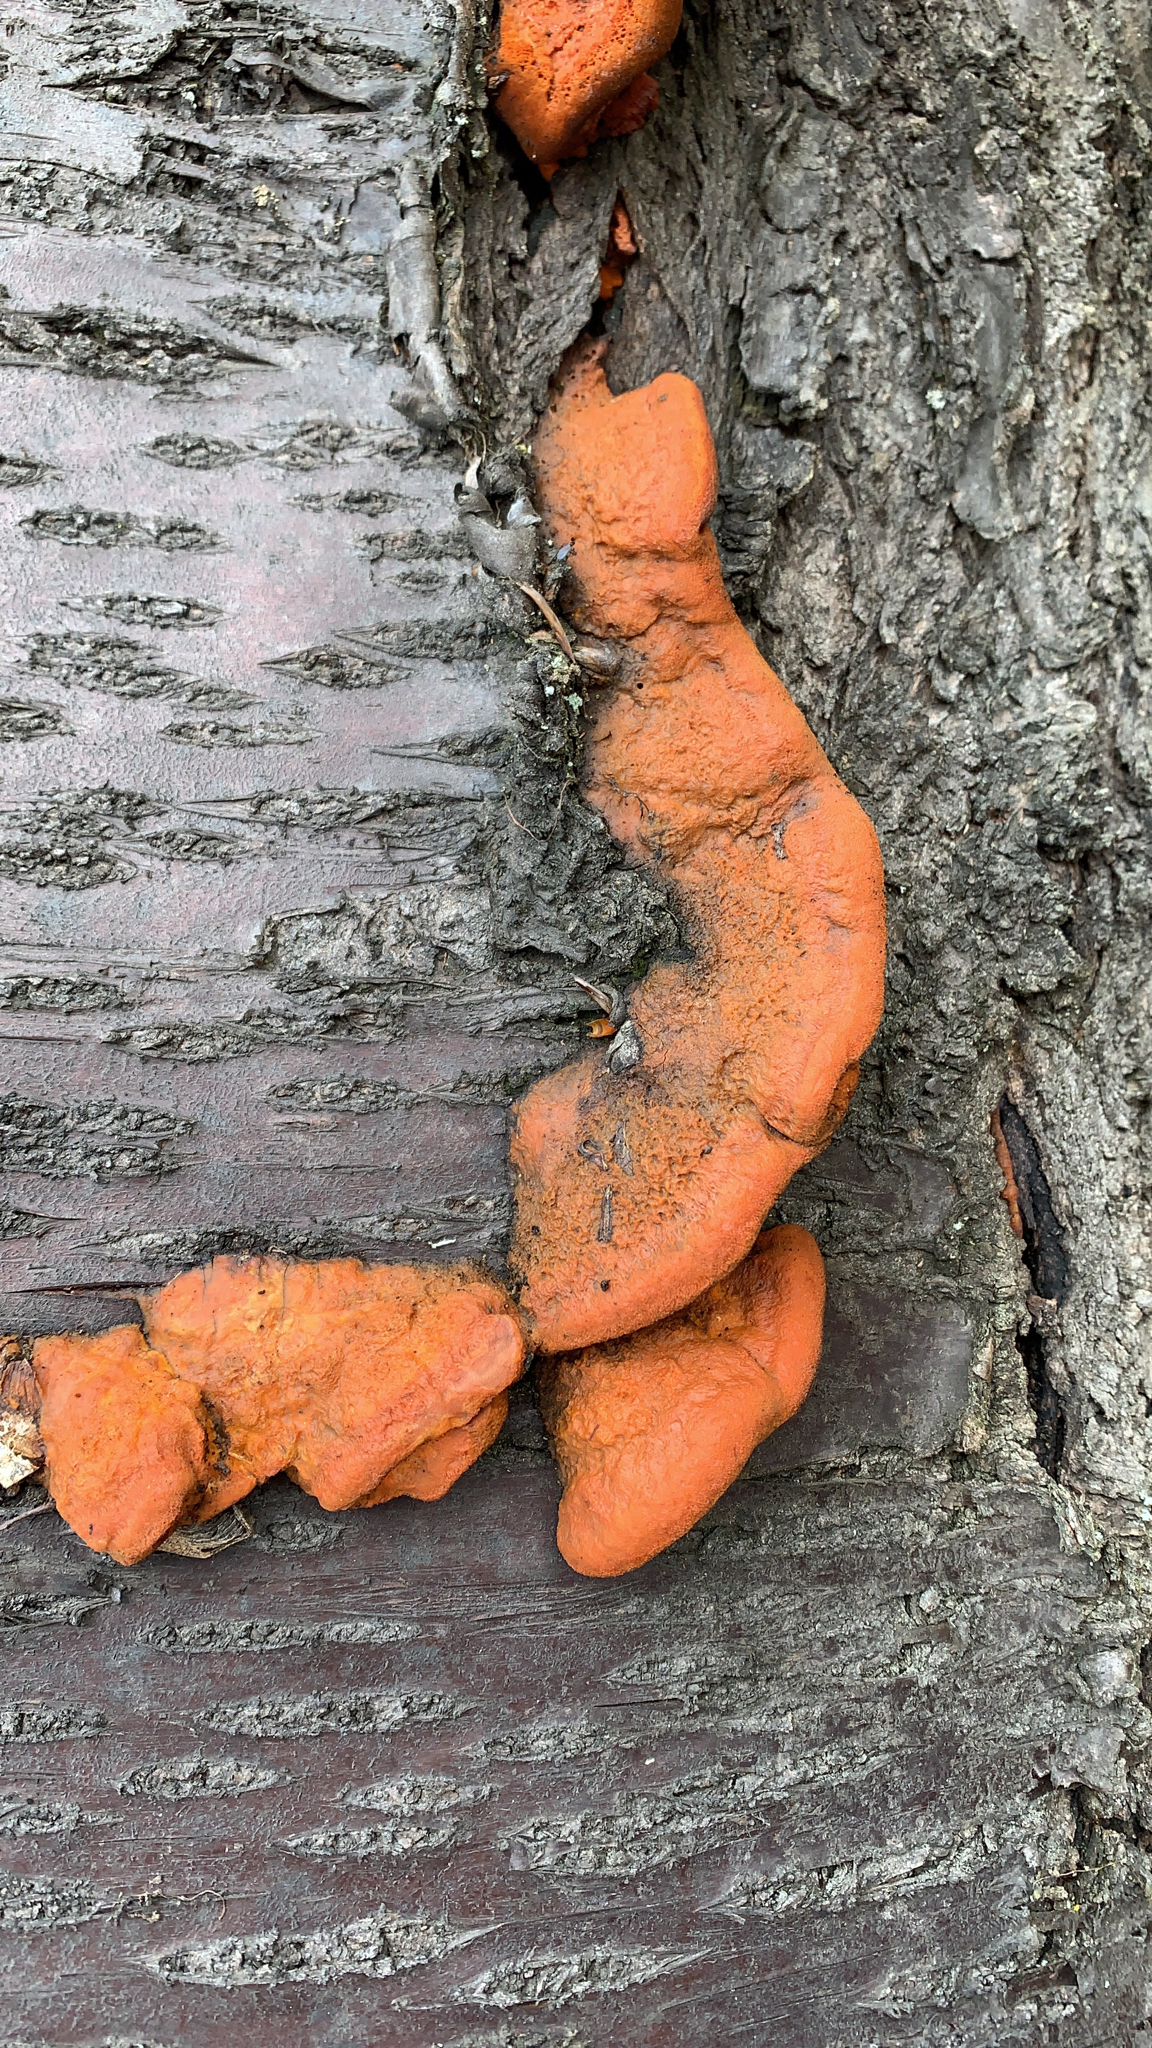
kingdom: Fungi
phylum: Basidiomycota
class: Agaricomycetes
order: Polyporales
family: Polyporaceae
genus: Trametes
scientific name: Trametes cinnabarina
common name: Northern cinnabar polypore
